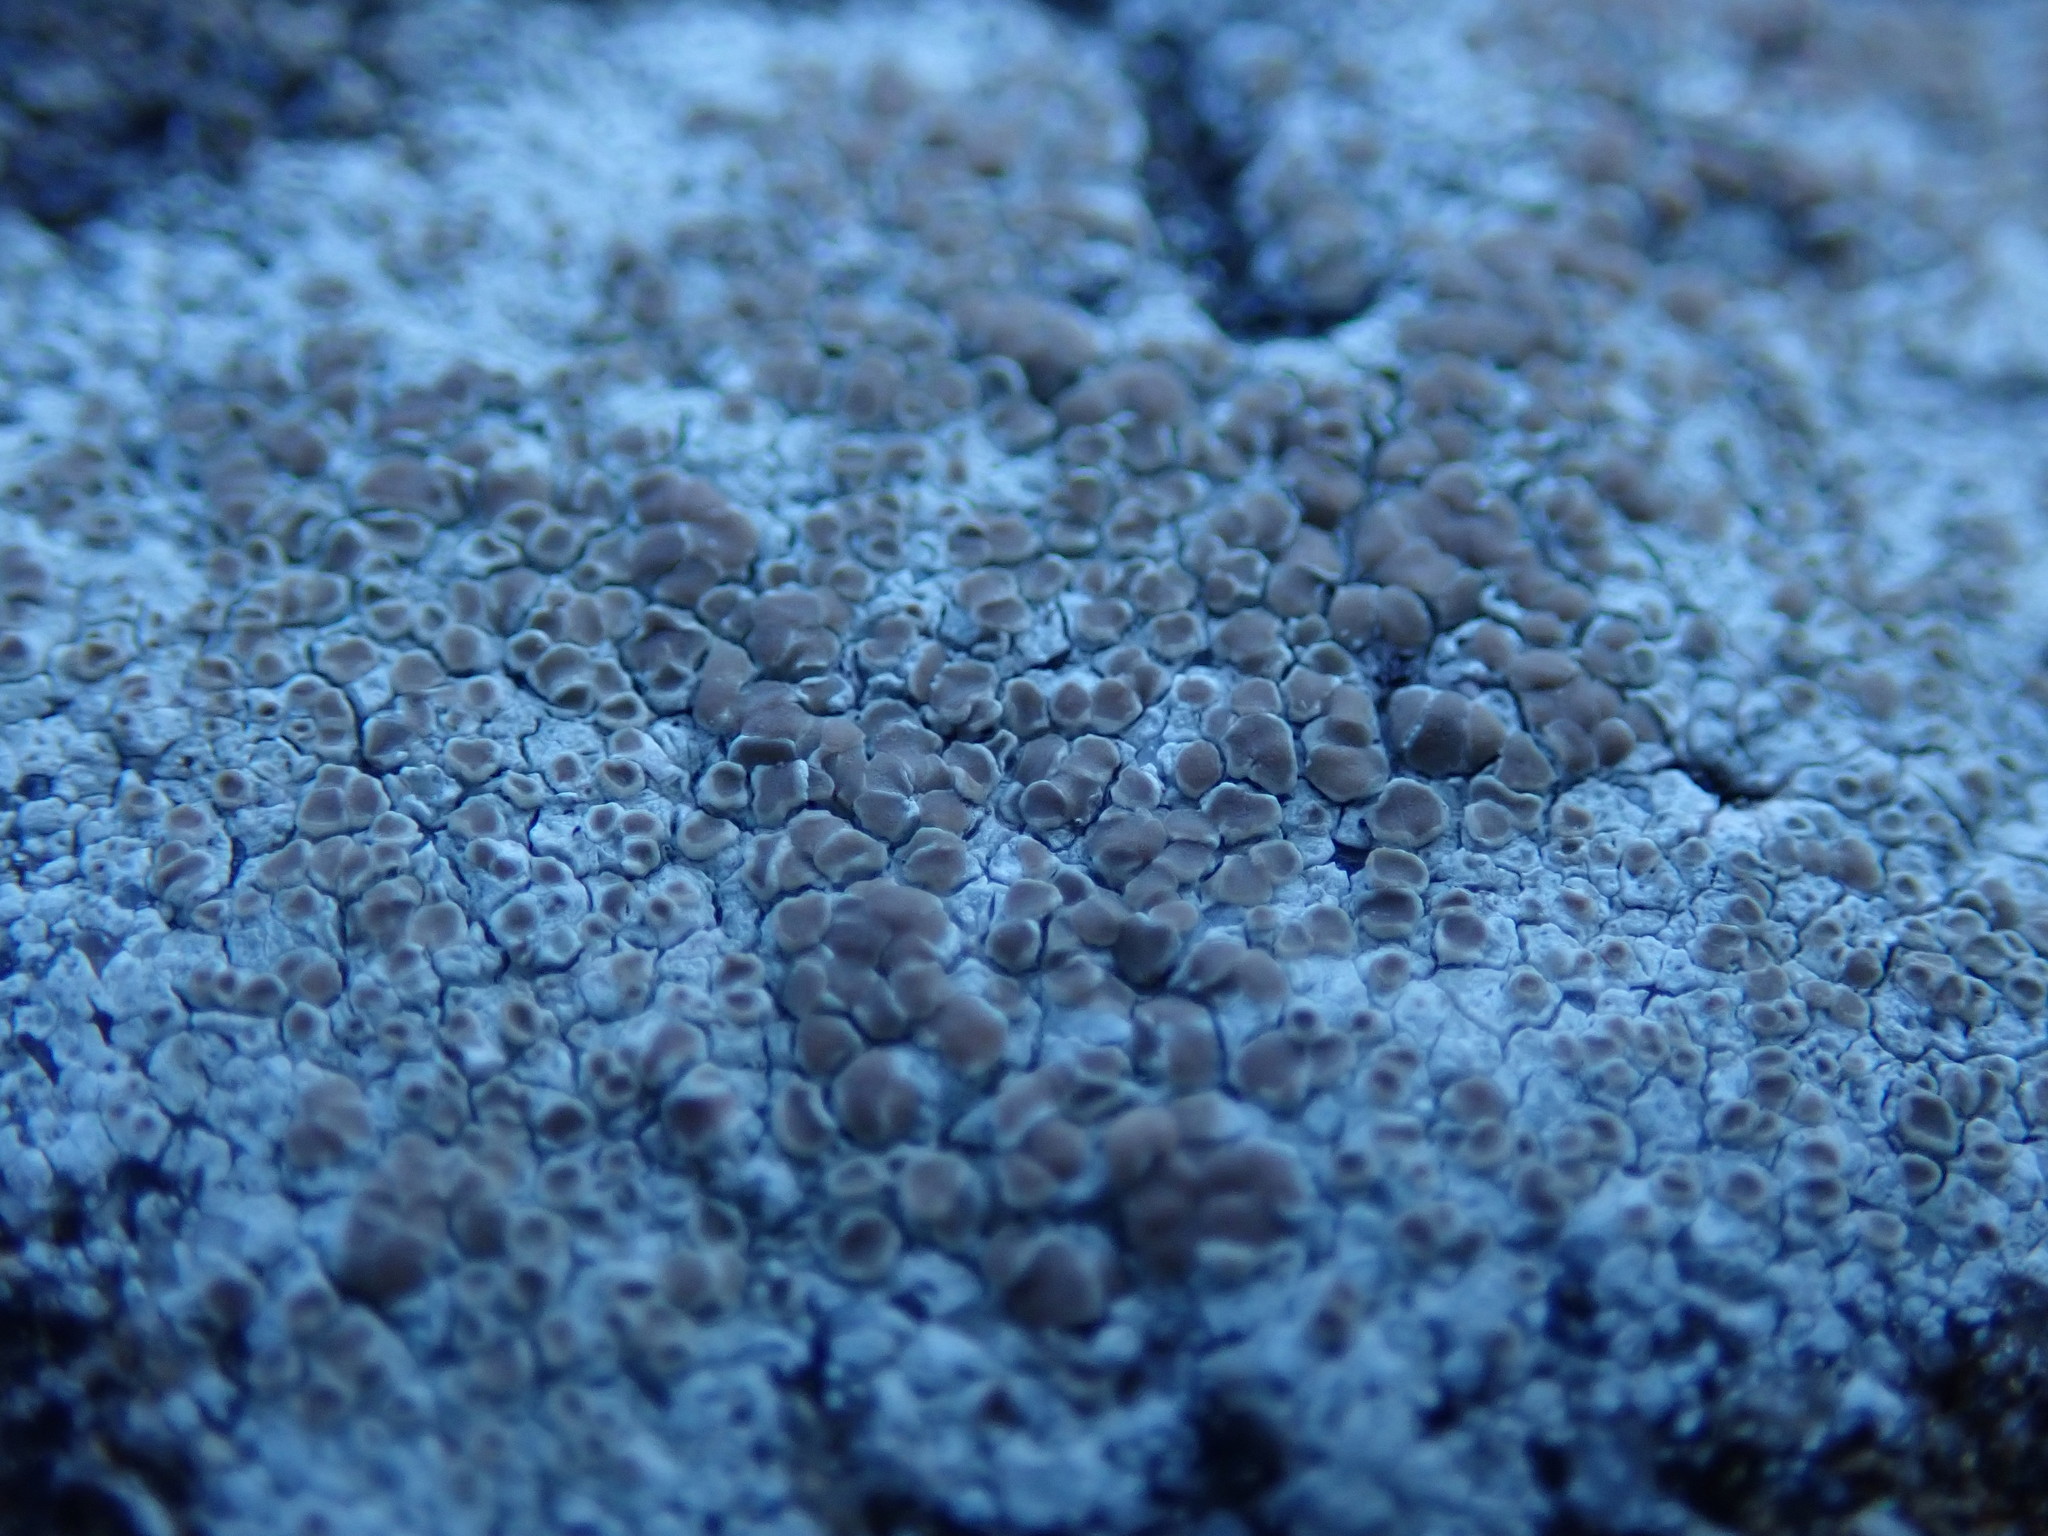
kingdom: Fungi
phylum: Ascomycota
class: Lecanoromycetes
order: Lecanorales
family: Lecanoraceae
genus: Protoparmeliopsis
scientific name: Protoparmeliopsis muralis
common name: Stonewall rim lichen
